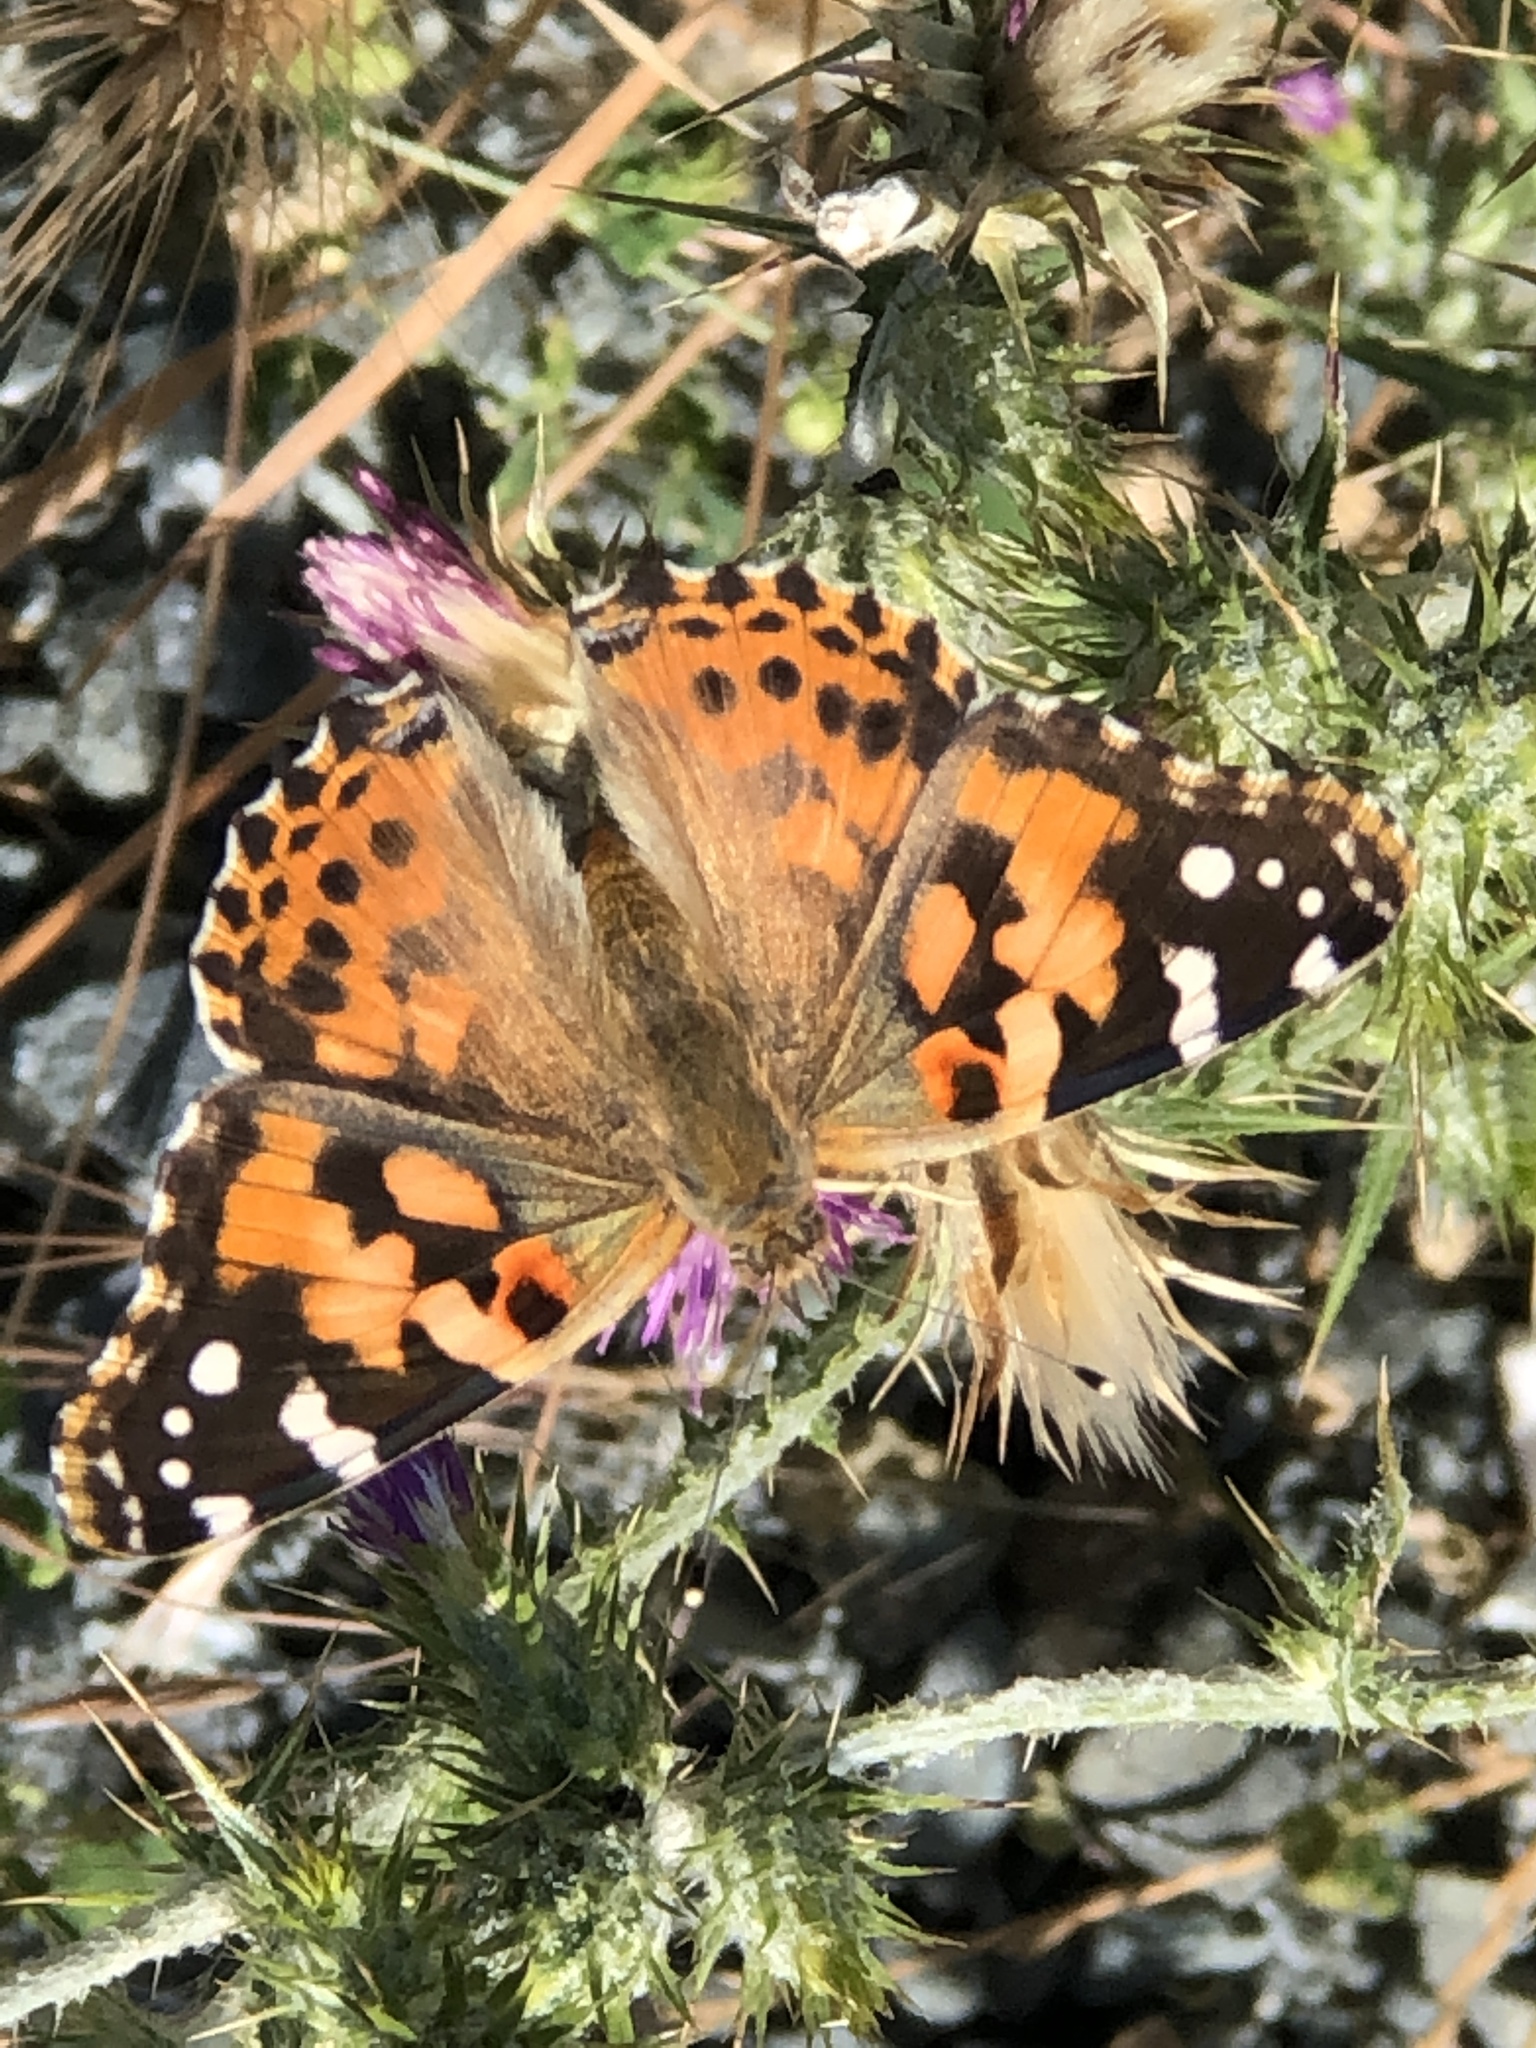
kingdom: Animalia
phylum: Arthropoda
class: Insecta
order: Lepidoptera
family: Nymphalidae
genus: Vanessa
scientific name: Vanessa cardui
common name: Painted lady
